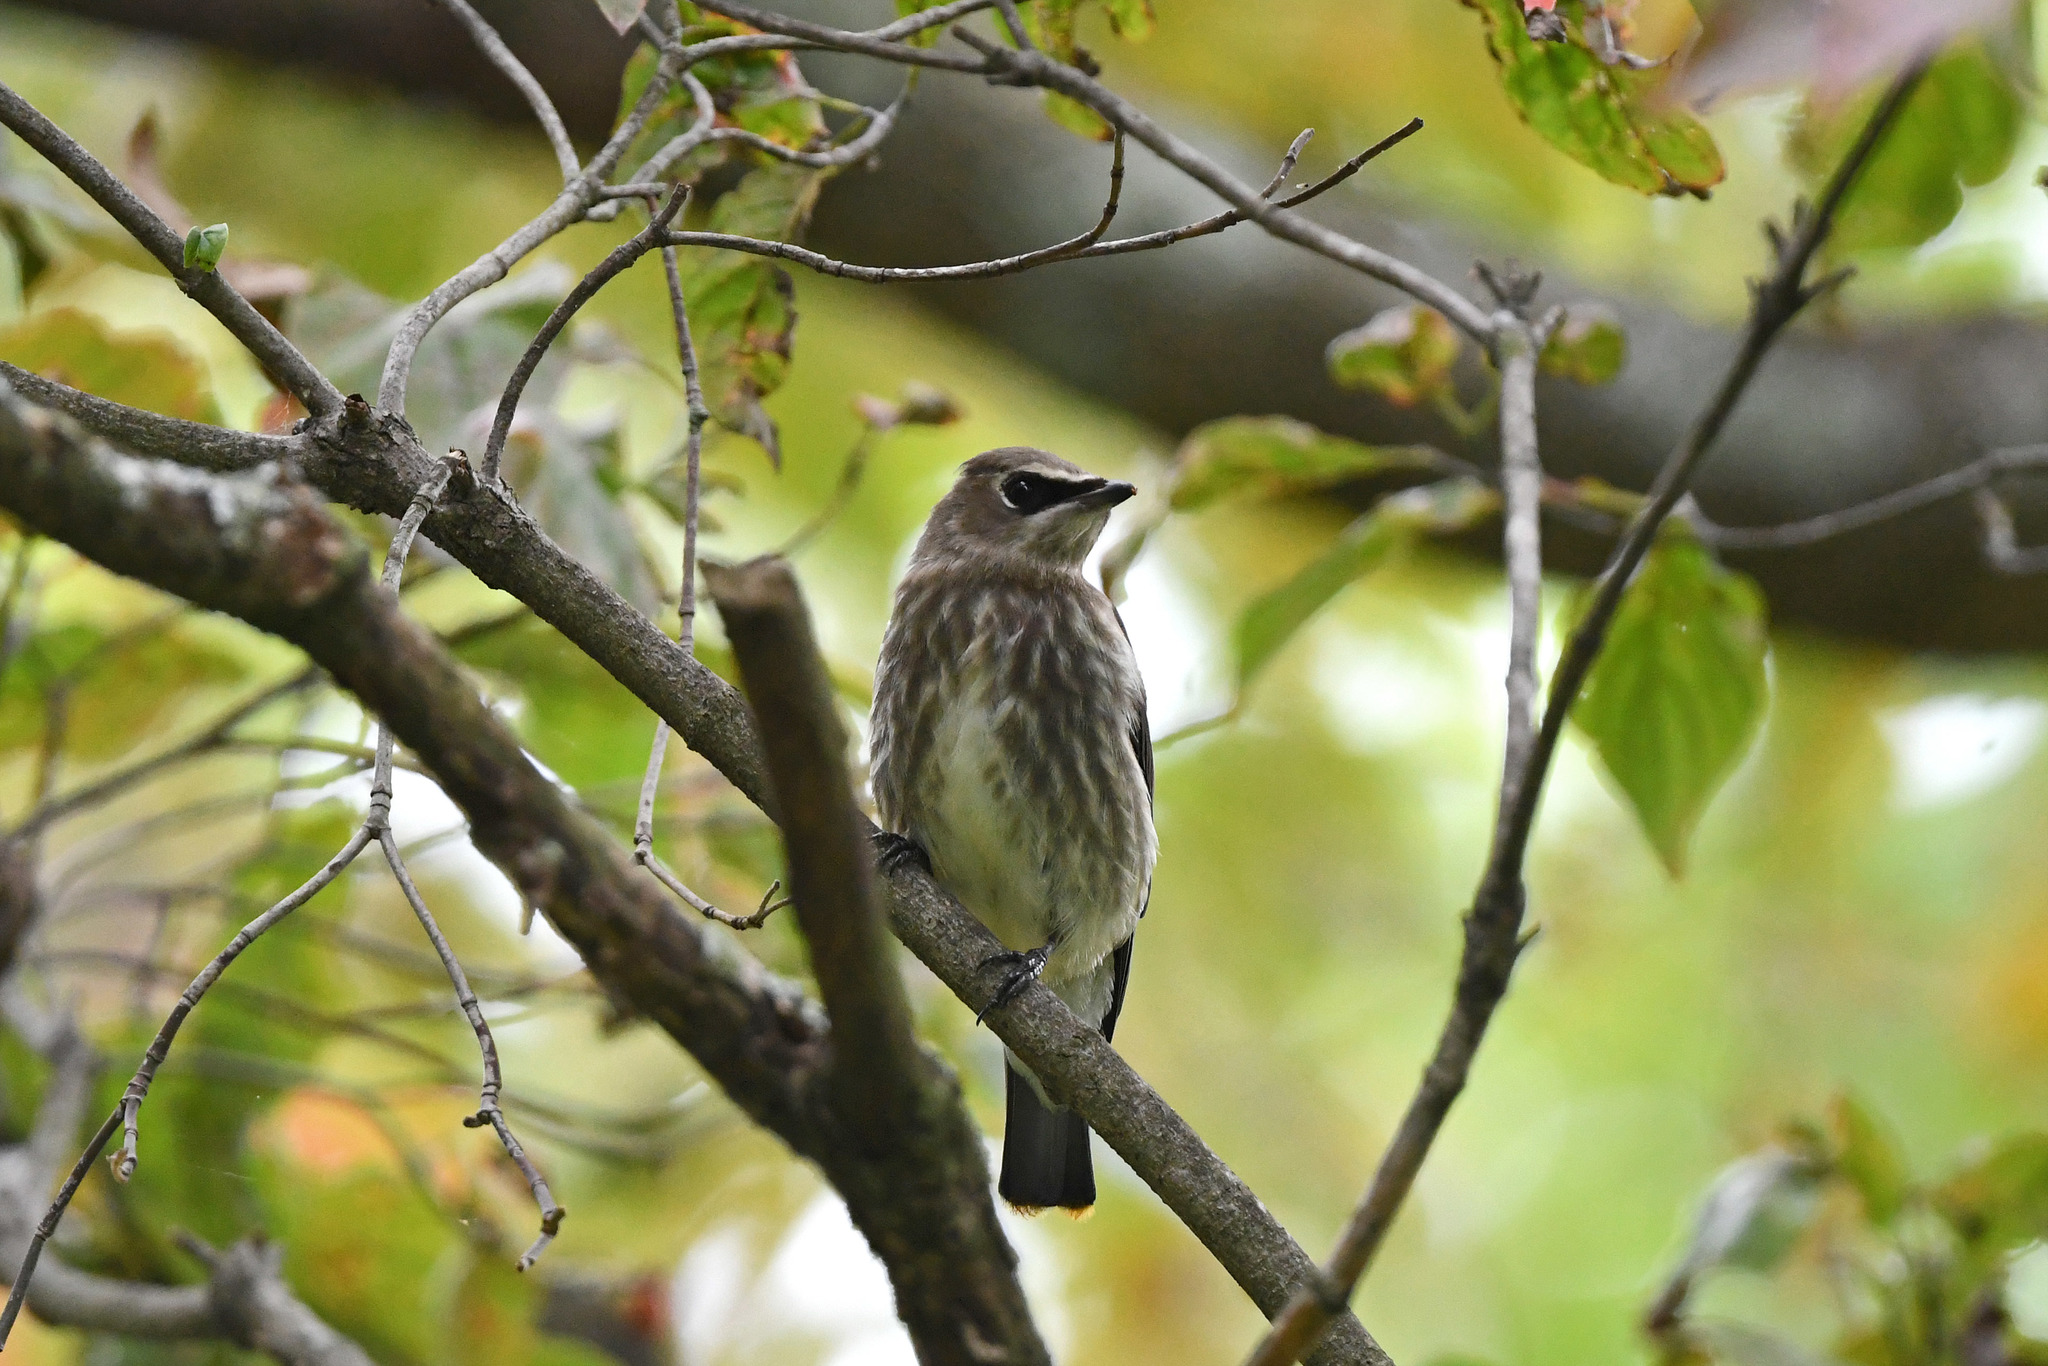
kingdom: Animalia
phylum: Chordata
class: Aves
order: Passeriformes
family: Bombycillidae
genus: Bombycilla
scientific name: Bombycilla cedrorum
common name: Cedar waxwing
